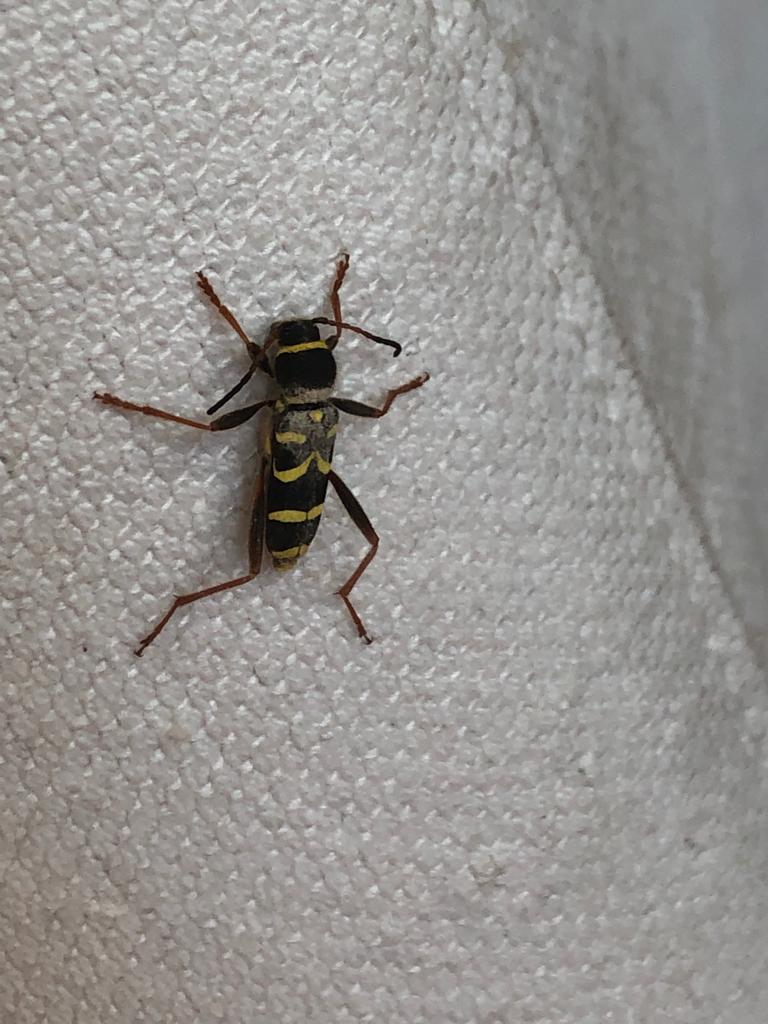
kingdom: Animalia
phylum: Arthropoda
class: Insecta
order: Coleoptera
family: Cerambycidae
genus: Clytus
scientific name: Clytus arietis
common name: Wasp beetle
